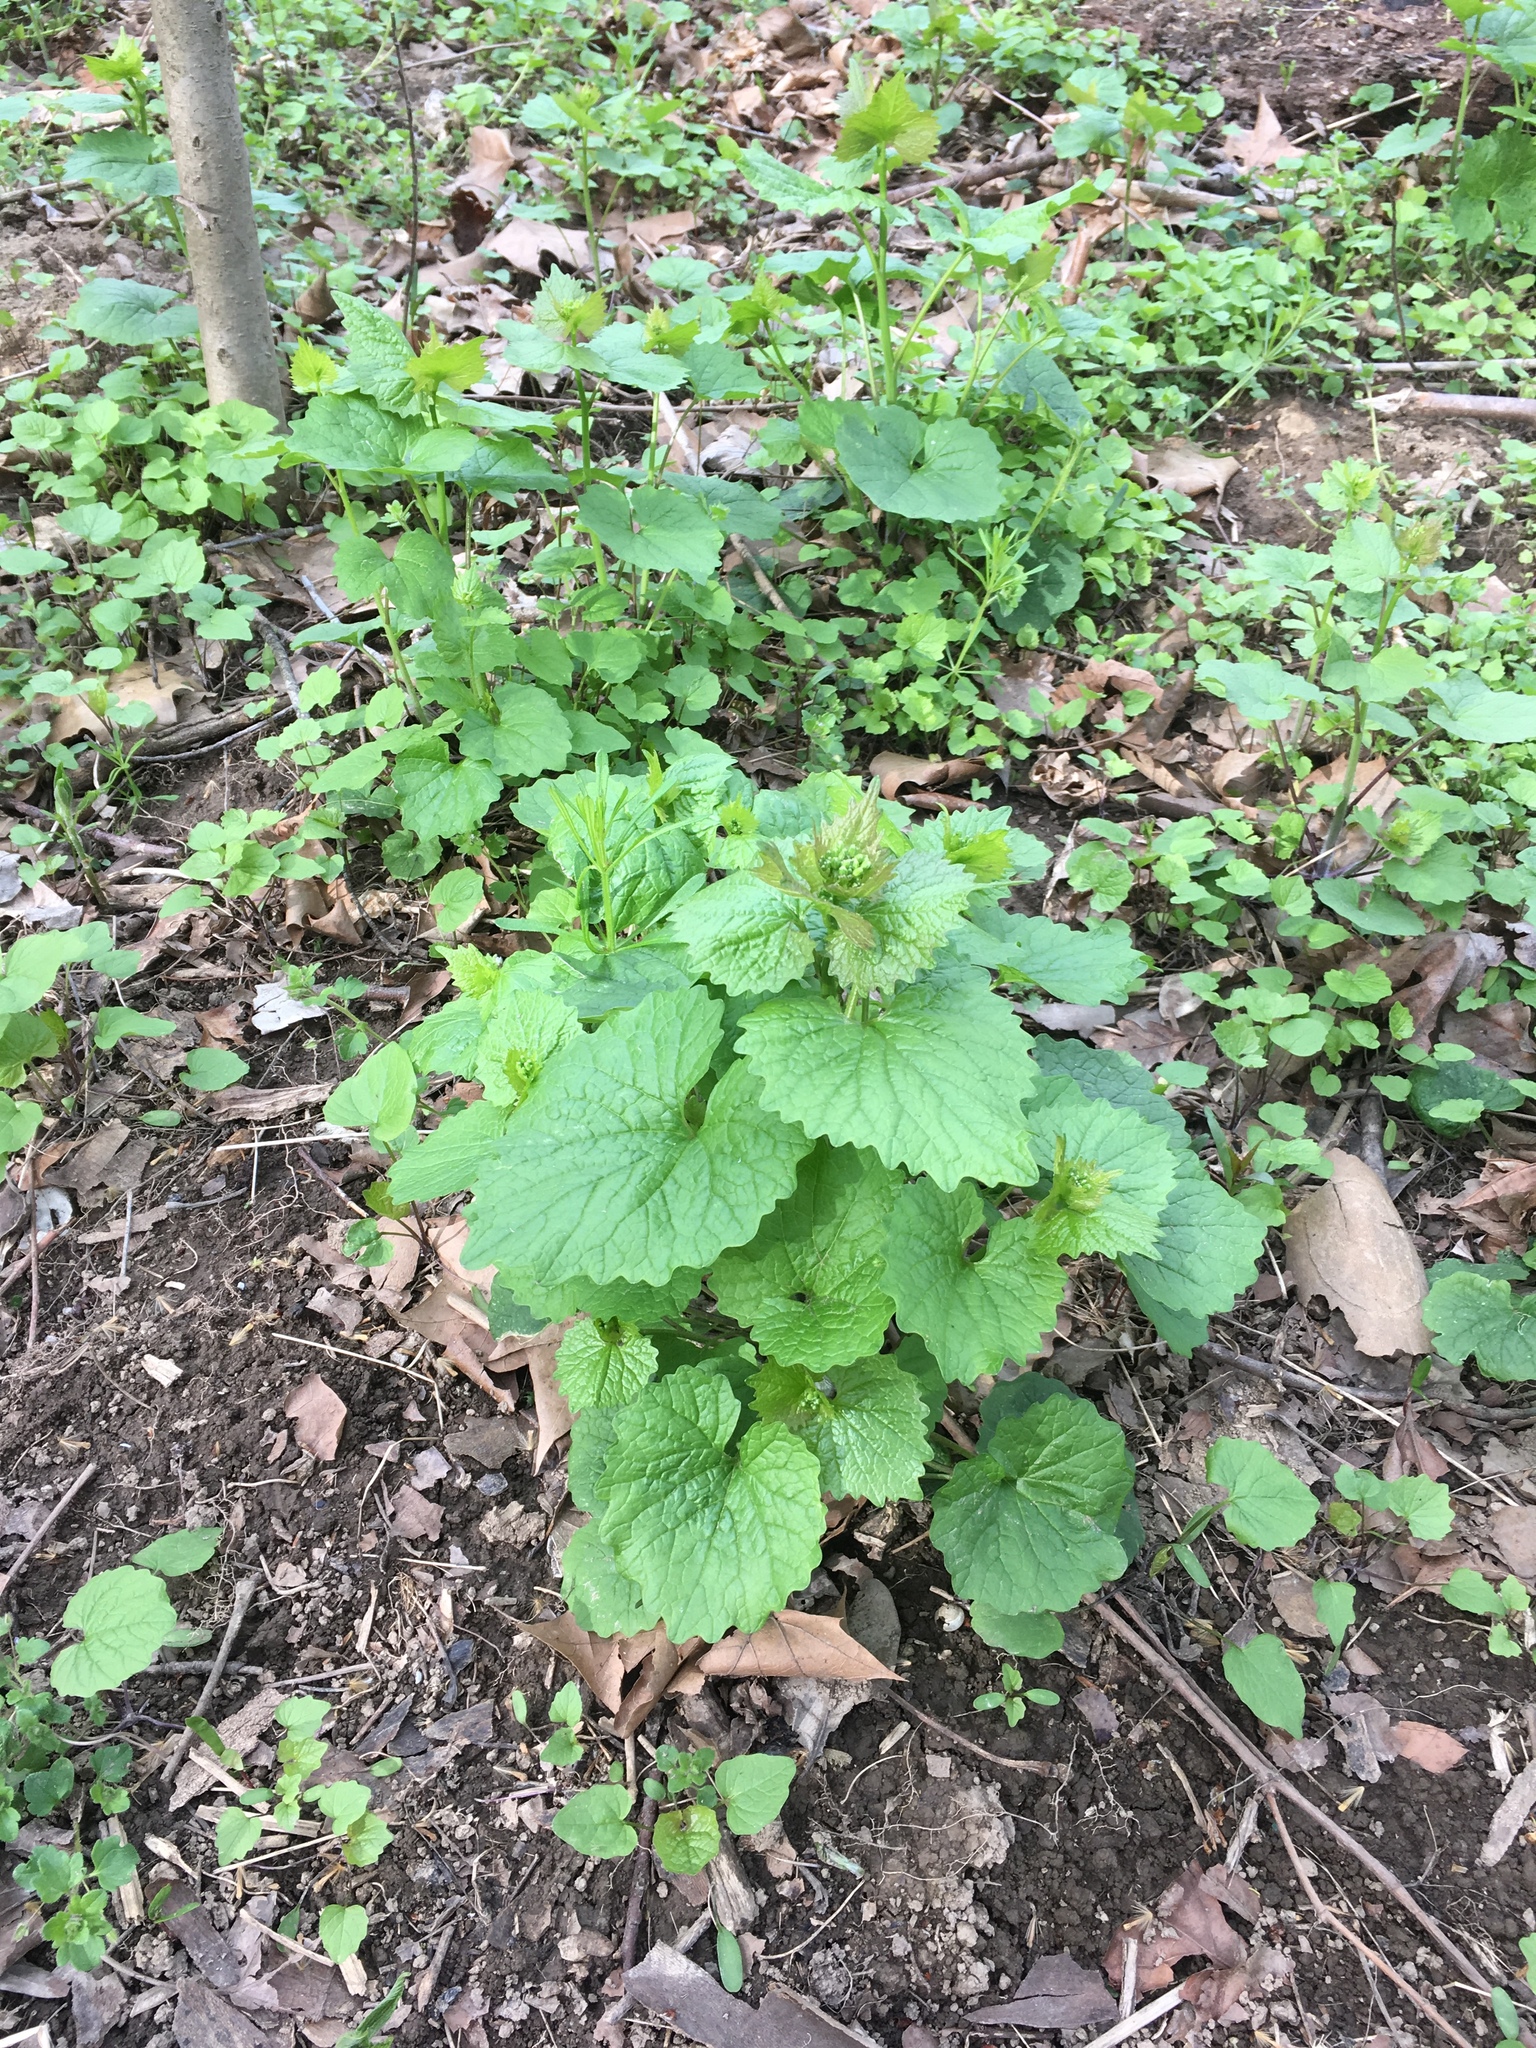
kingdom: Plantae
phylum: Tracheophyta
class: Magnoliopsida
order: Brassicales
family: Brassicaceae
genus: Alliaria
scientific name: Alliaria petiolata
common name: Garlic mustard
